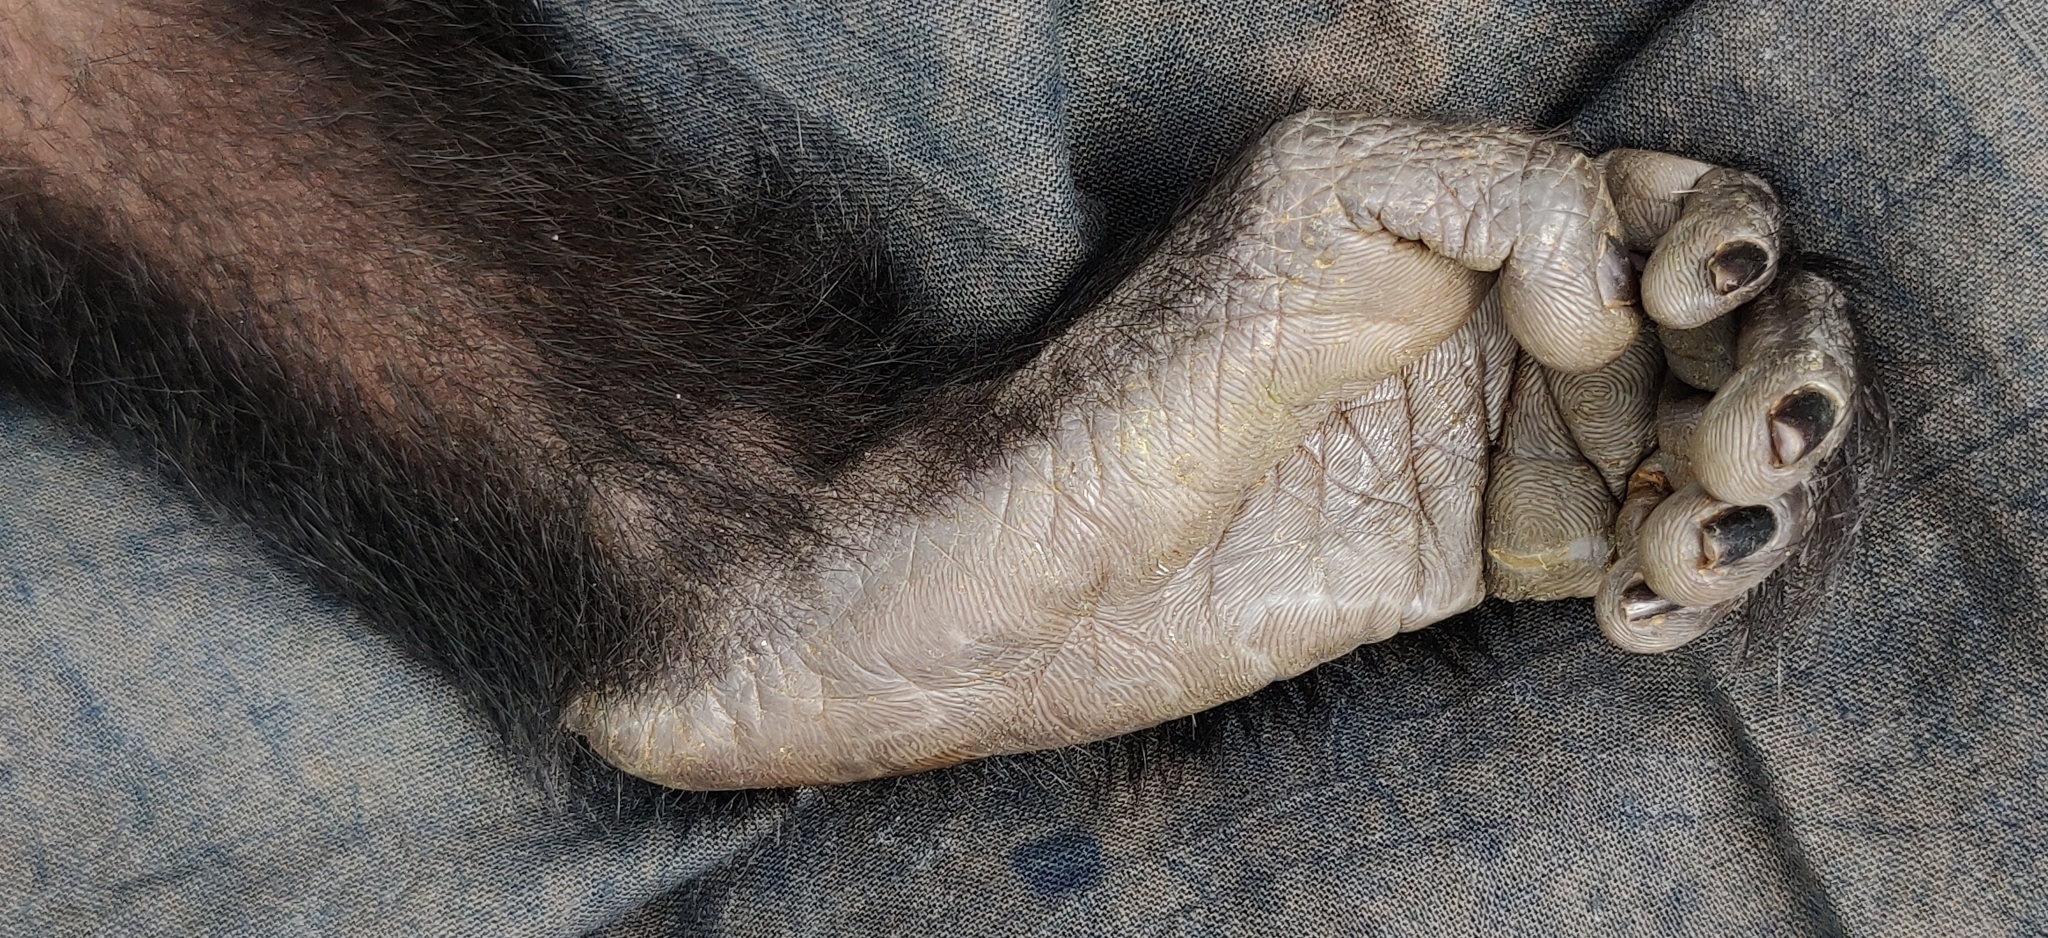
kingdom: Animalia
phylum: Chordata
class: Mammalia
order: Primates
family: Cercopithecidae
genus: Macaca
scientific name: Macaca silenus
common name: Lion-tailed macaque
